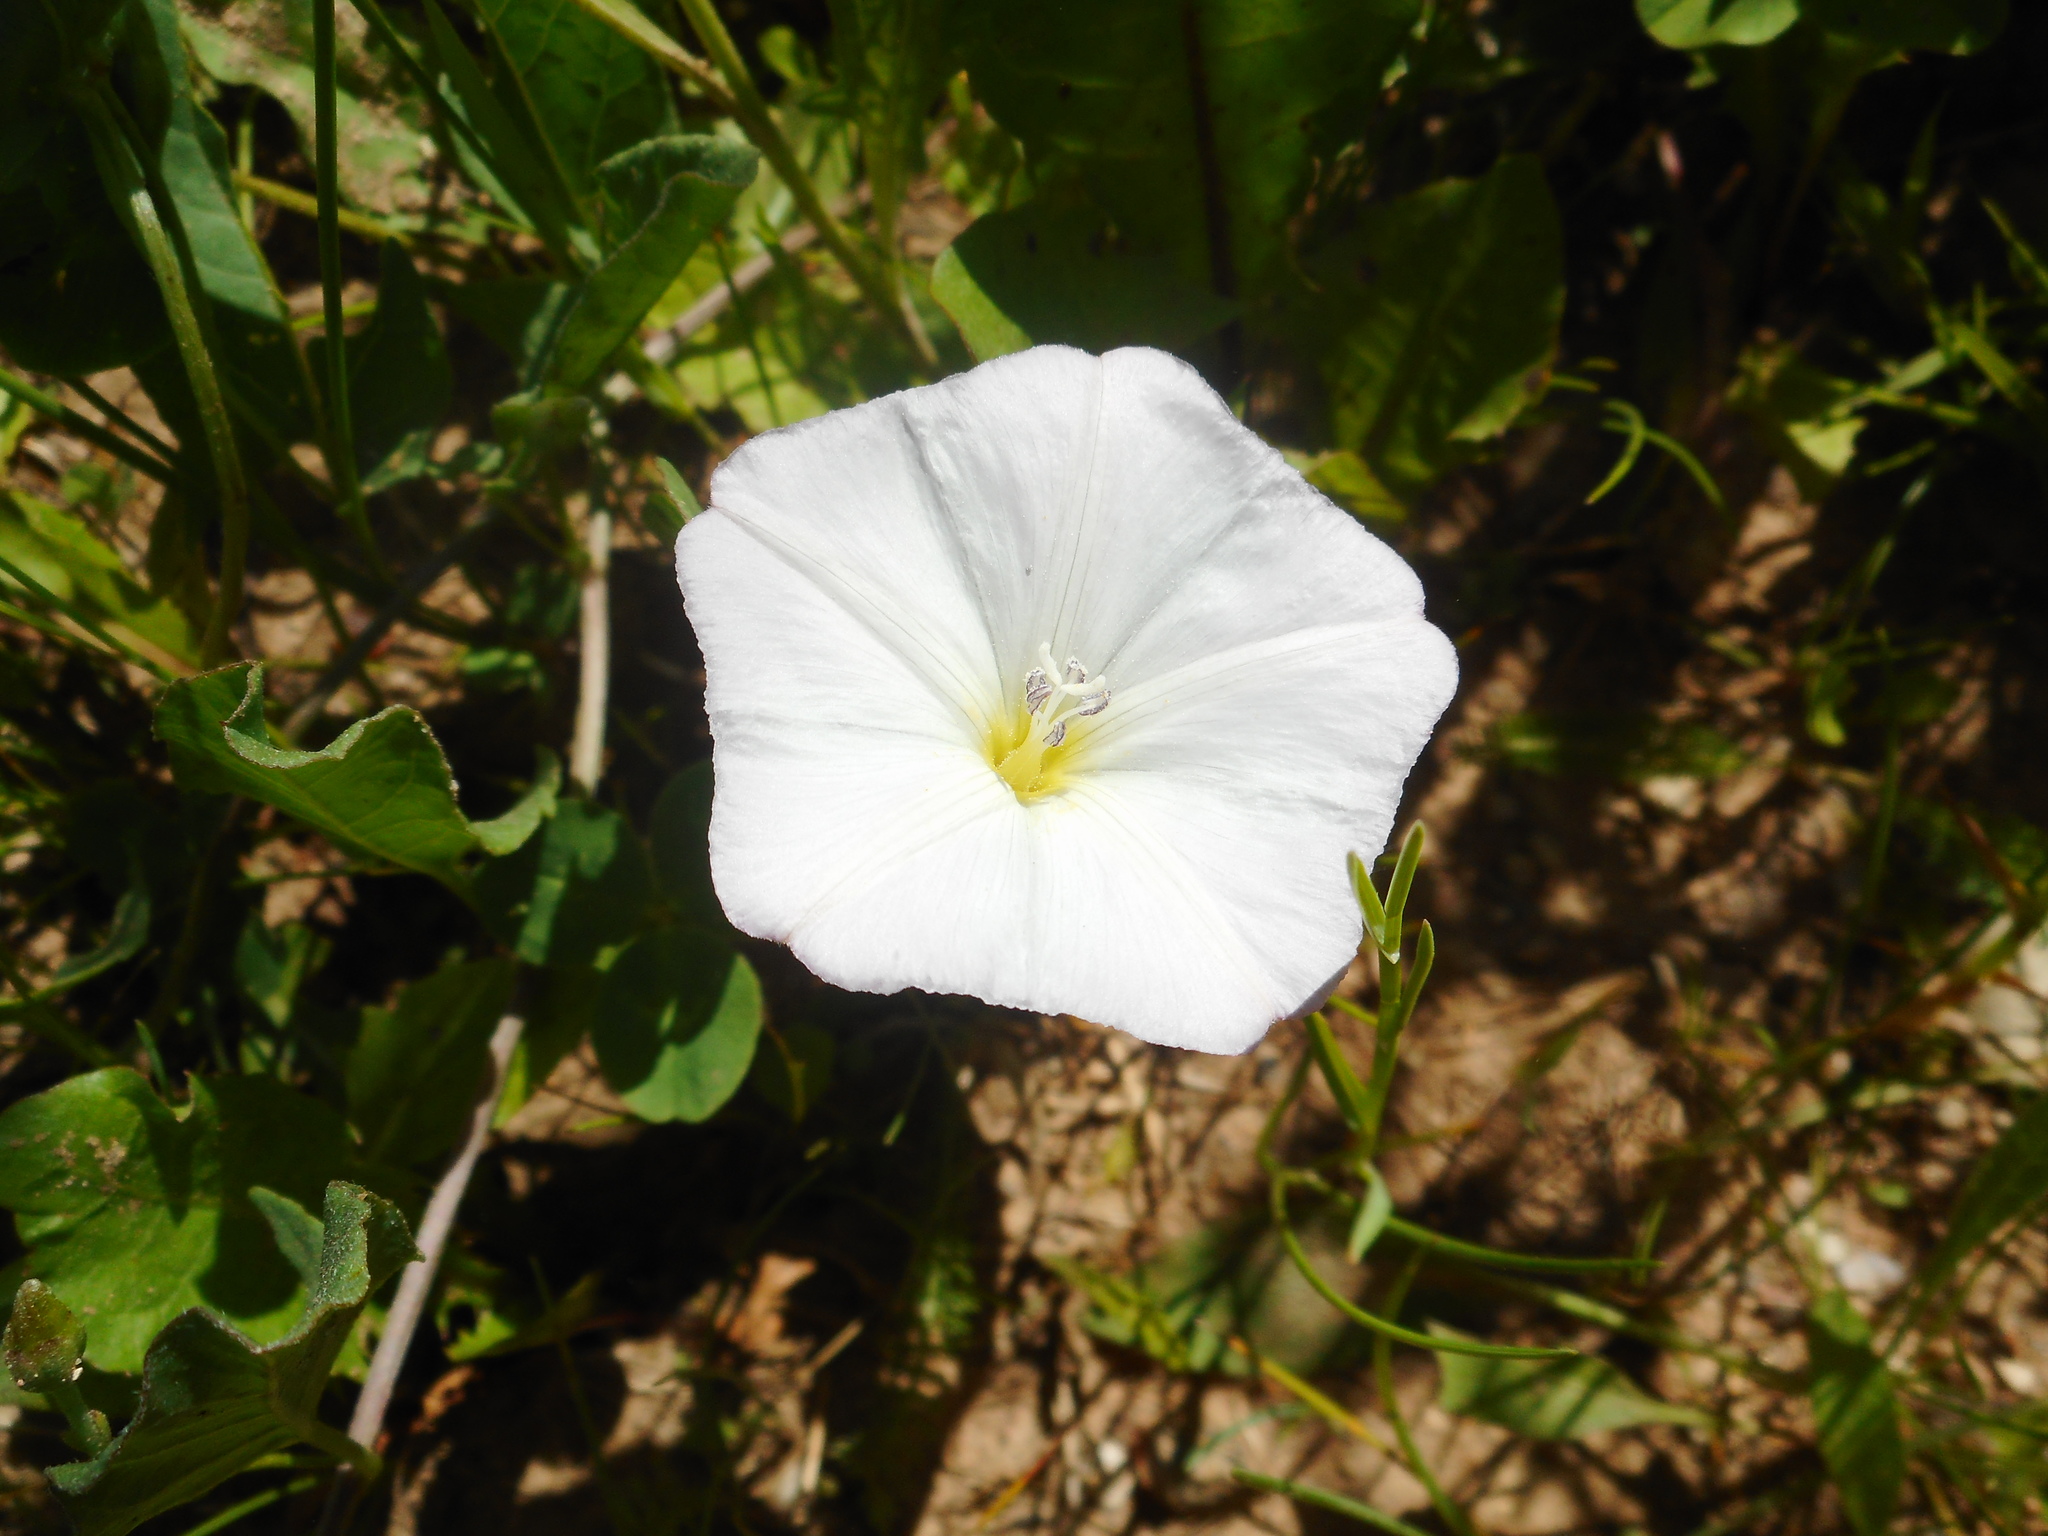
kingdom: Plantae
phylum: Tracheophyta
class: Magnoliopsida
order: Solanales
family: Convolvulaceae
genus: Convolvulus
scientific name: Convolvulus arvensis
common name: Field bindweed
